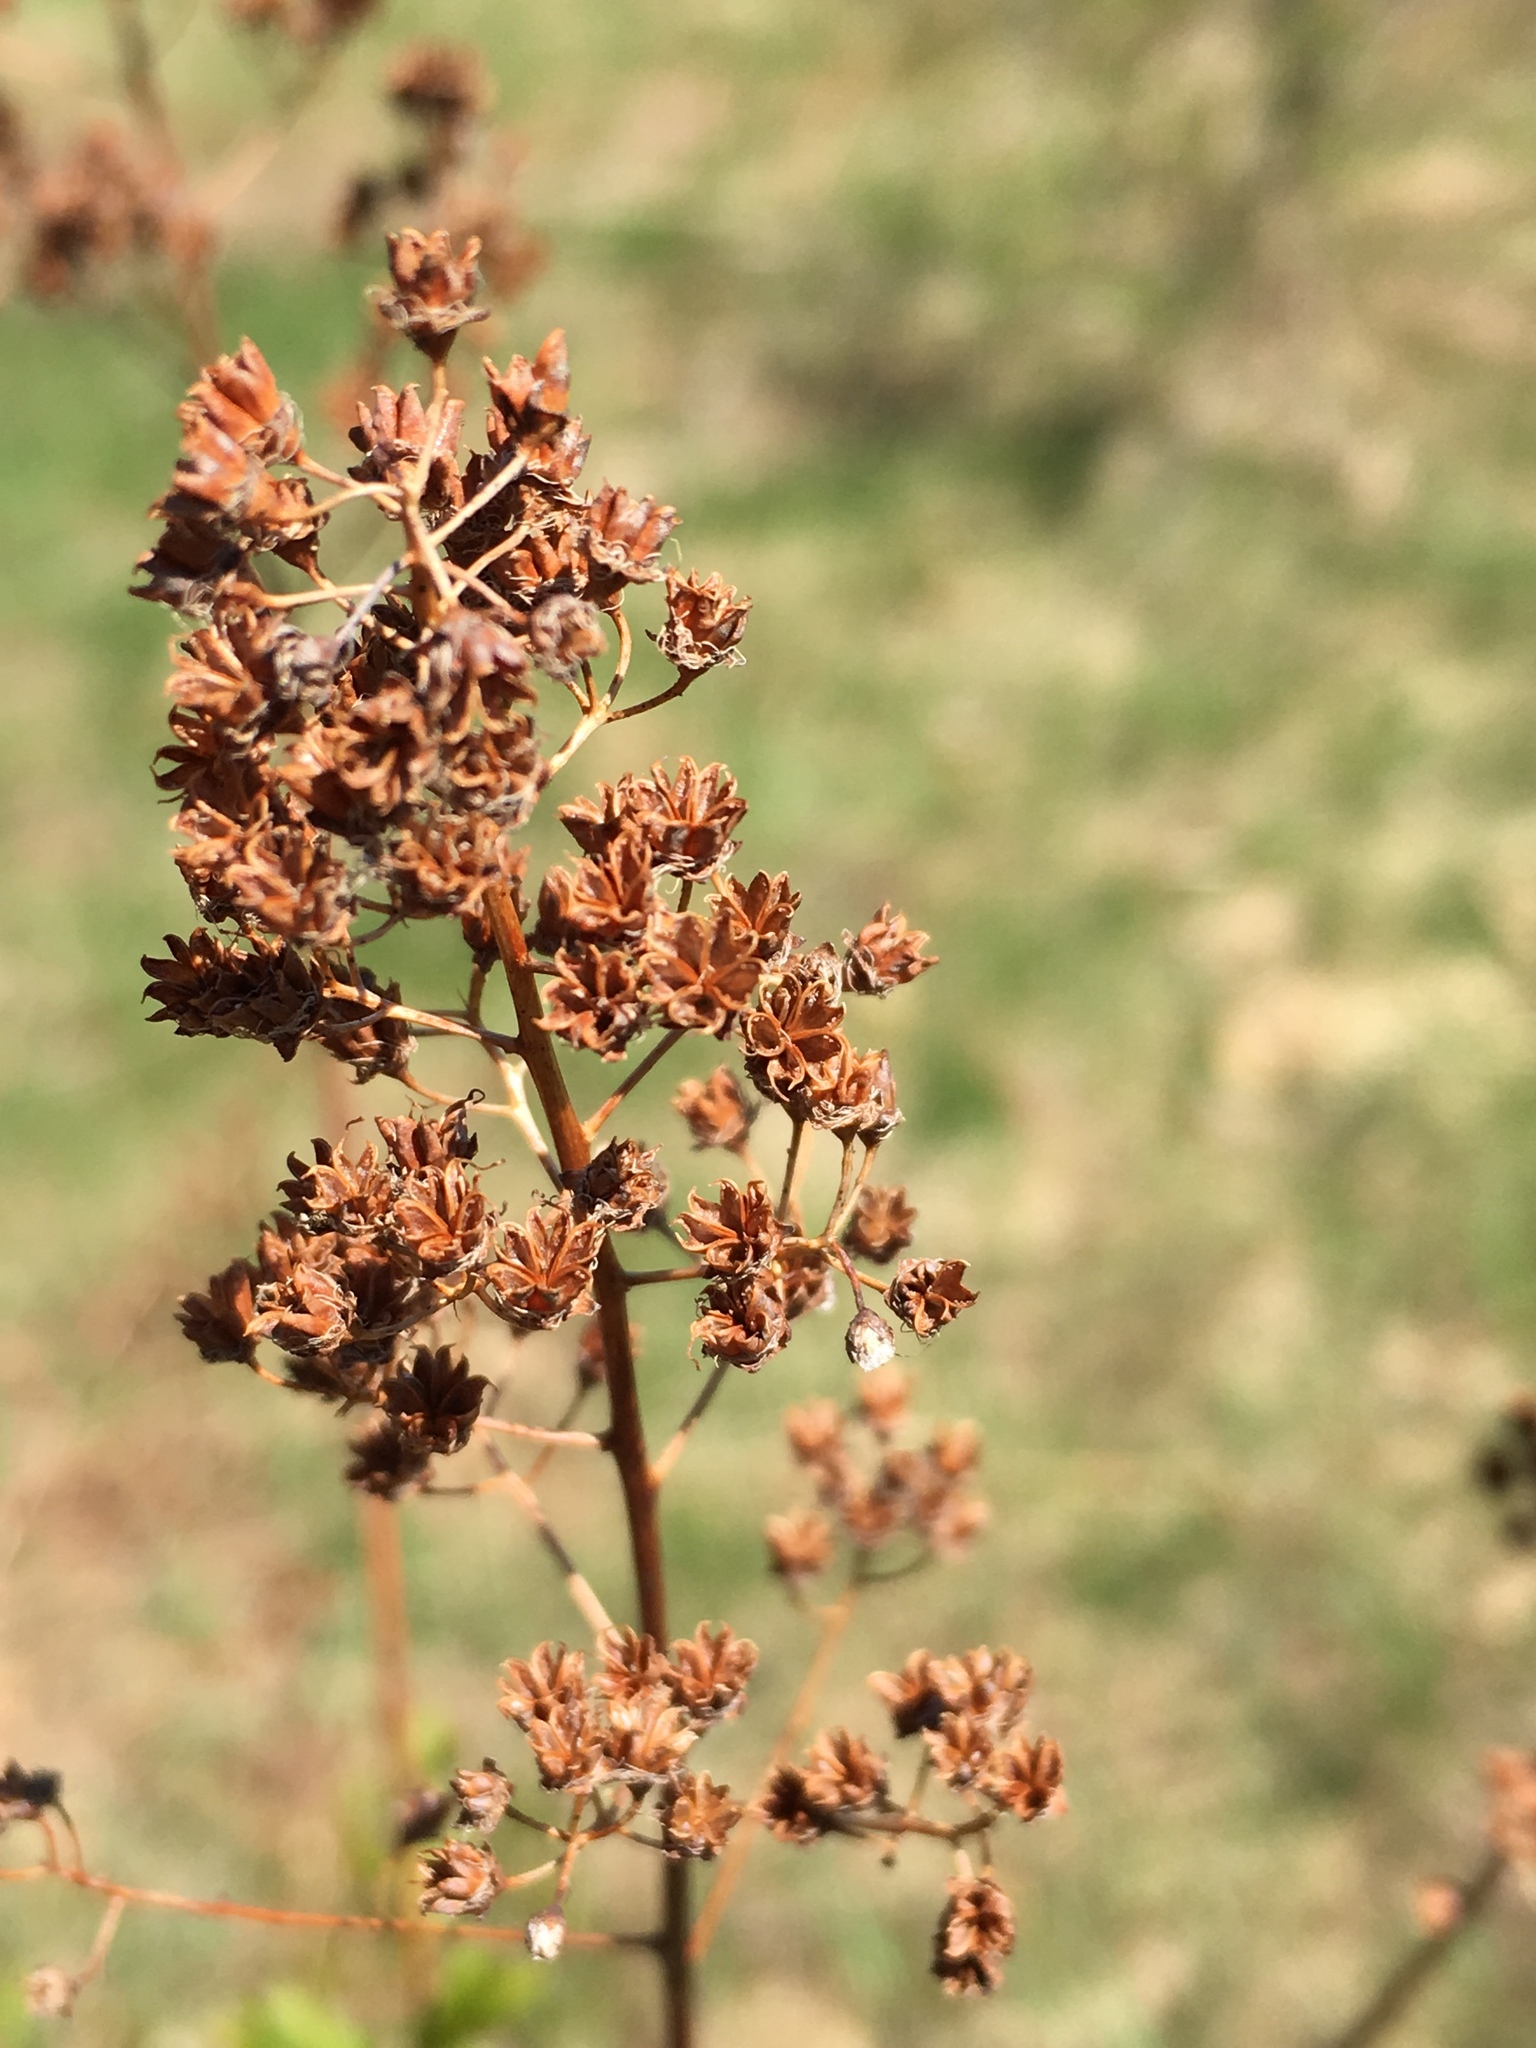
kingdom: Plantae
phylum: Tracheophyta
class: Magnoliopsida
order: Rosales
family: Rosaceae
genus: Spiraea
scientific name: Spiraea alba
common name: Pale bridewort
